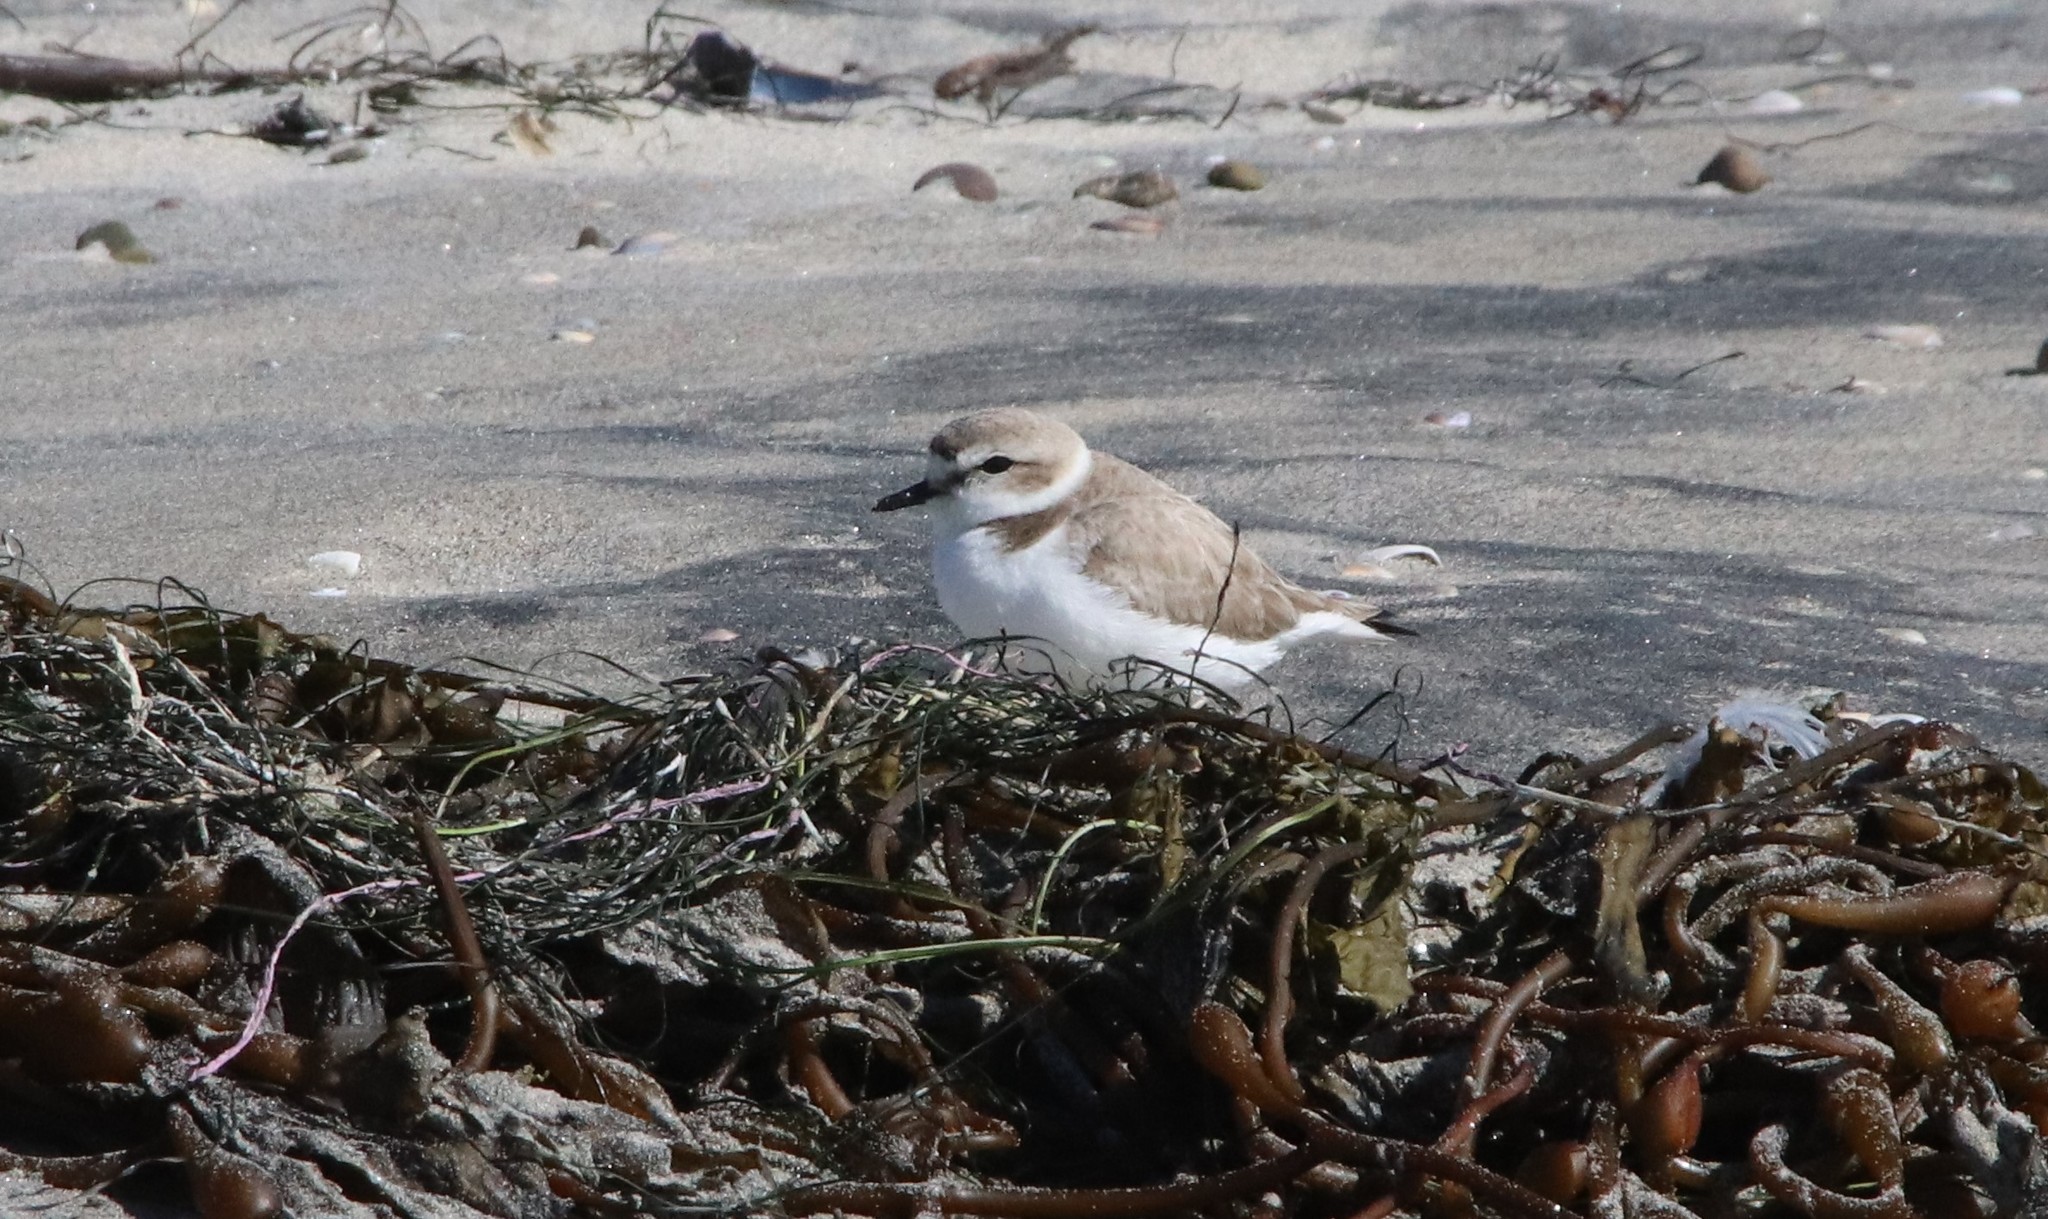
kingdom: Animalia
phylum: Chordata
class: Aves
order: Charadriiformes
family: Charadriidae
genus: Anarhynchus
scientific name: Anarhynchus
